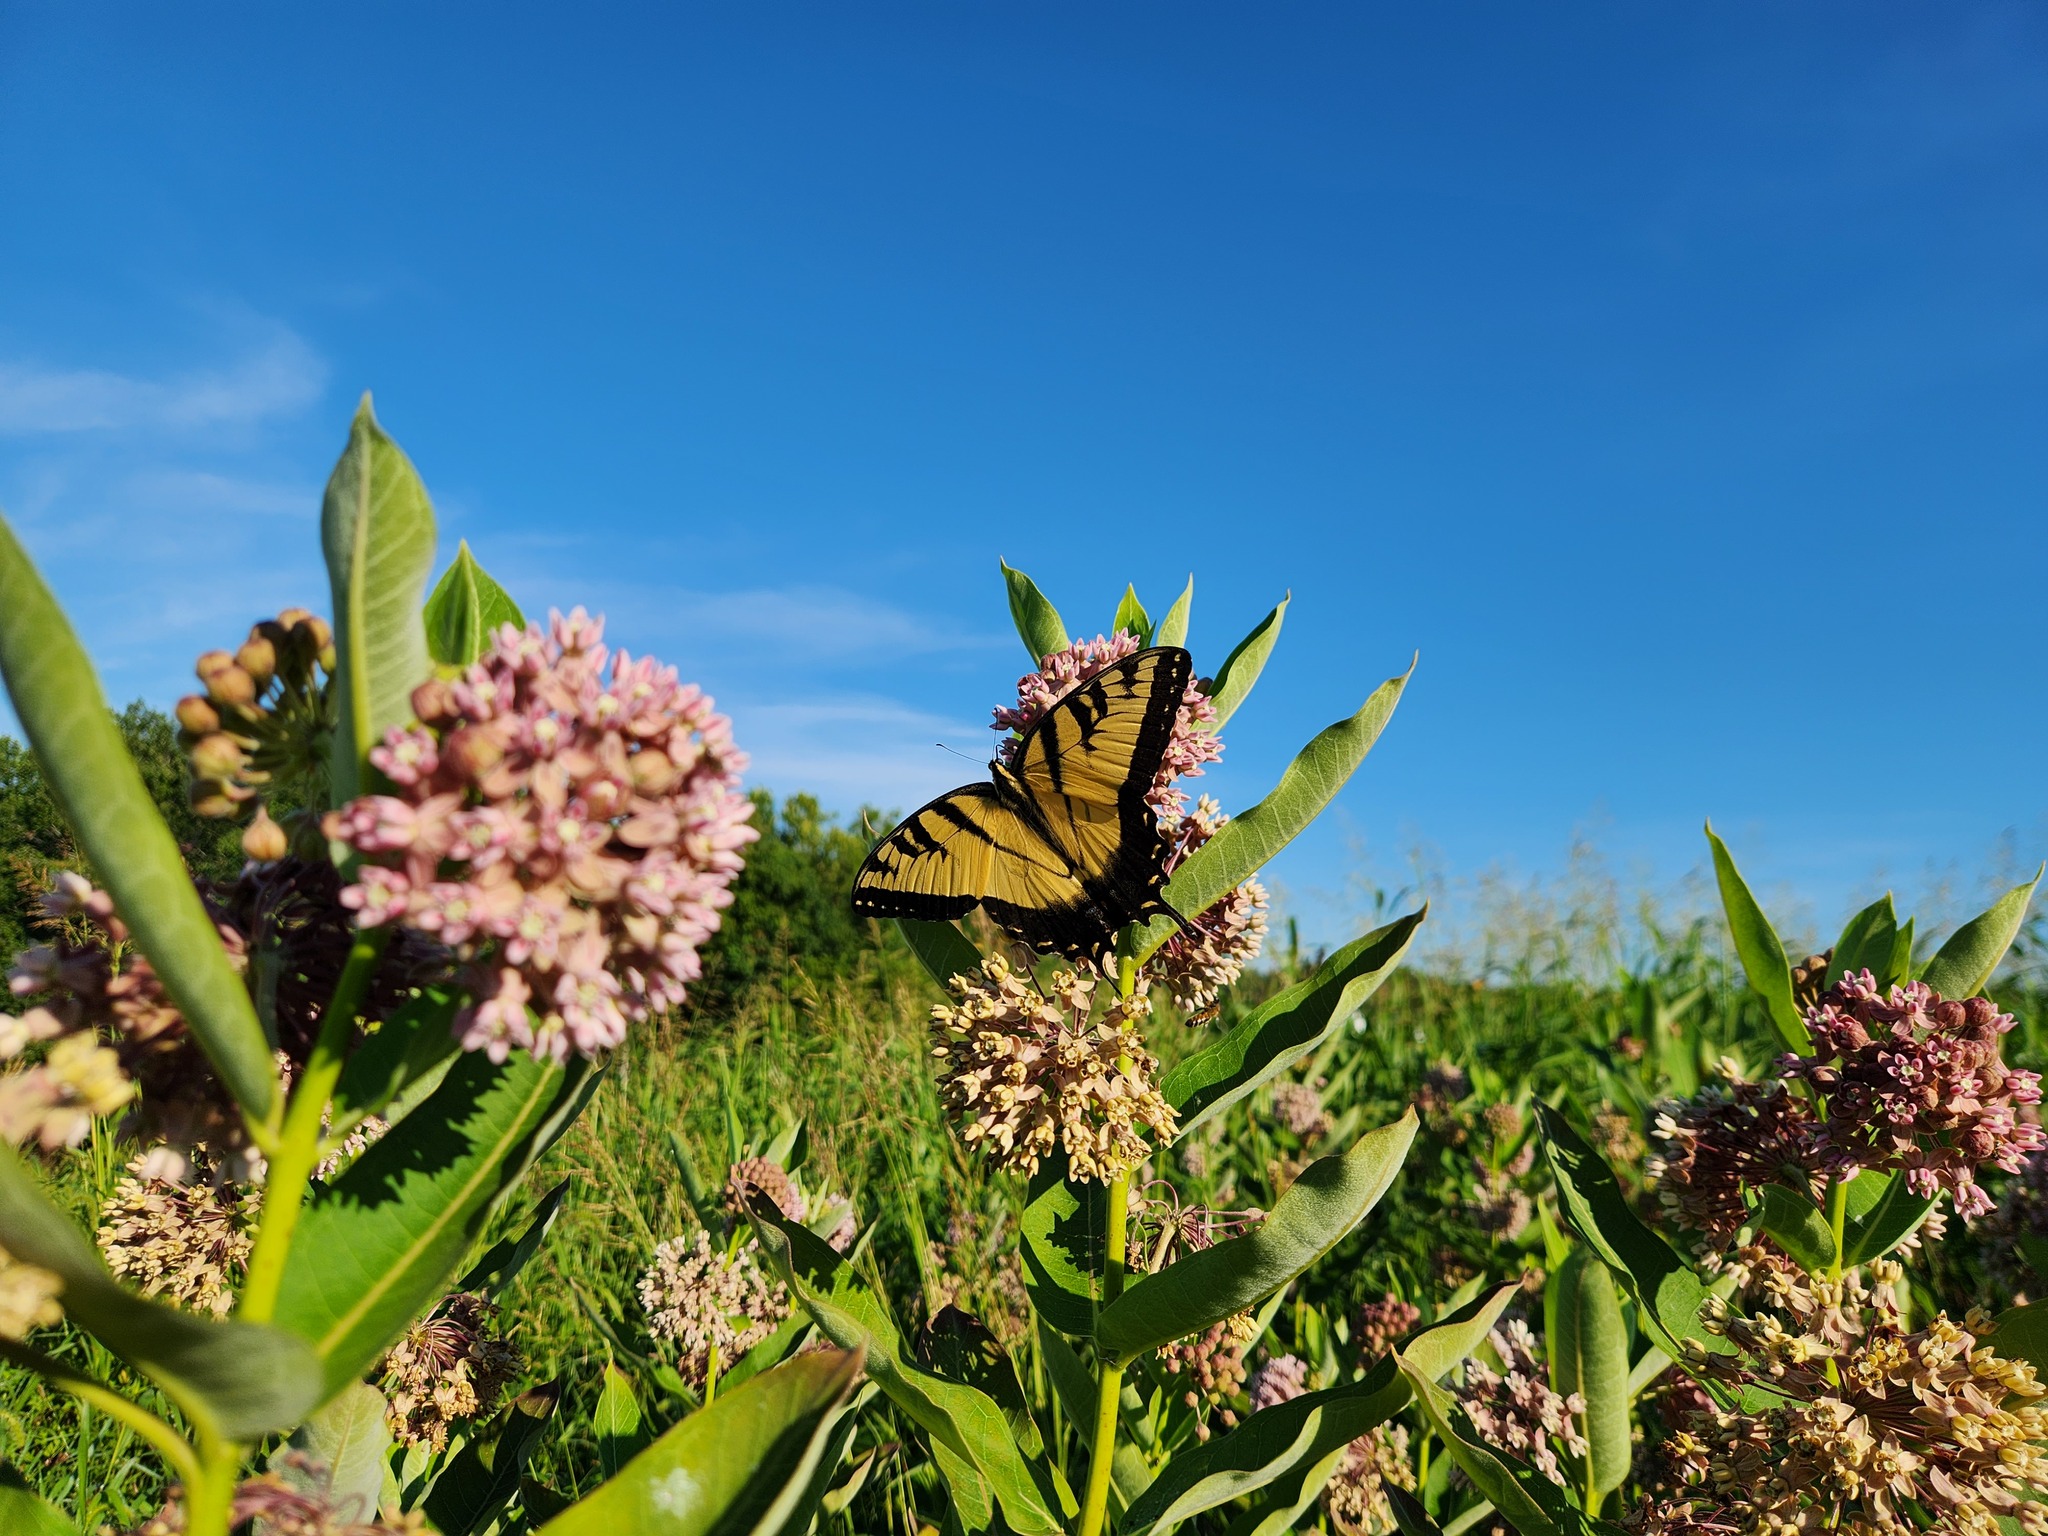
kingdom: Animalia
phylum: Arthropoda
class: Insecta
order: Lepidoptera
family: Papilionidae
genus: Papilio
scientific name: Papilio glaucus
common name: Tiger swallowtail
